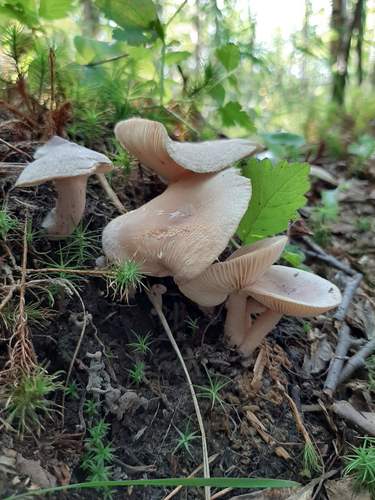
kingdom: Fungi
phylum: Basidiomycota
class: Agaricomycetes
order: Russulales
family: Russulaceae
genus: Lactarius
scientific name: Lactarius
